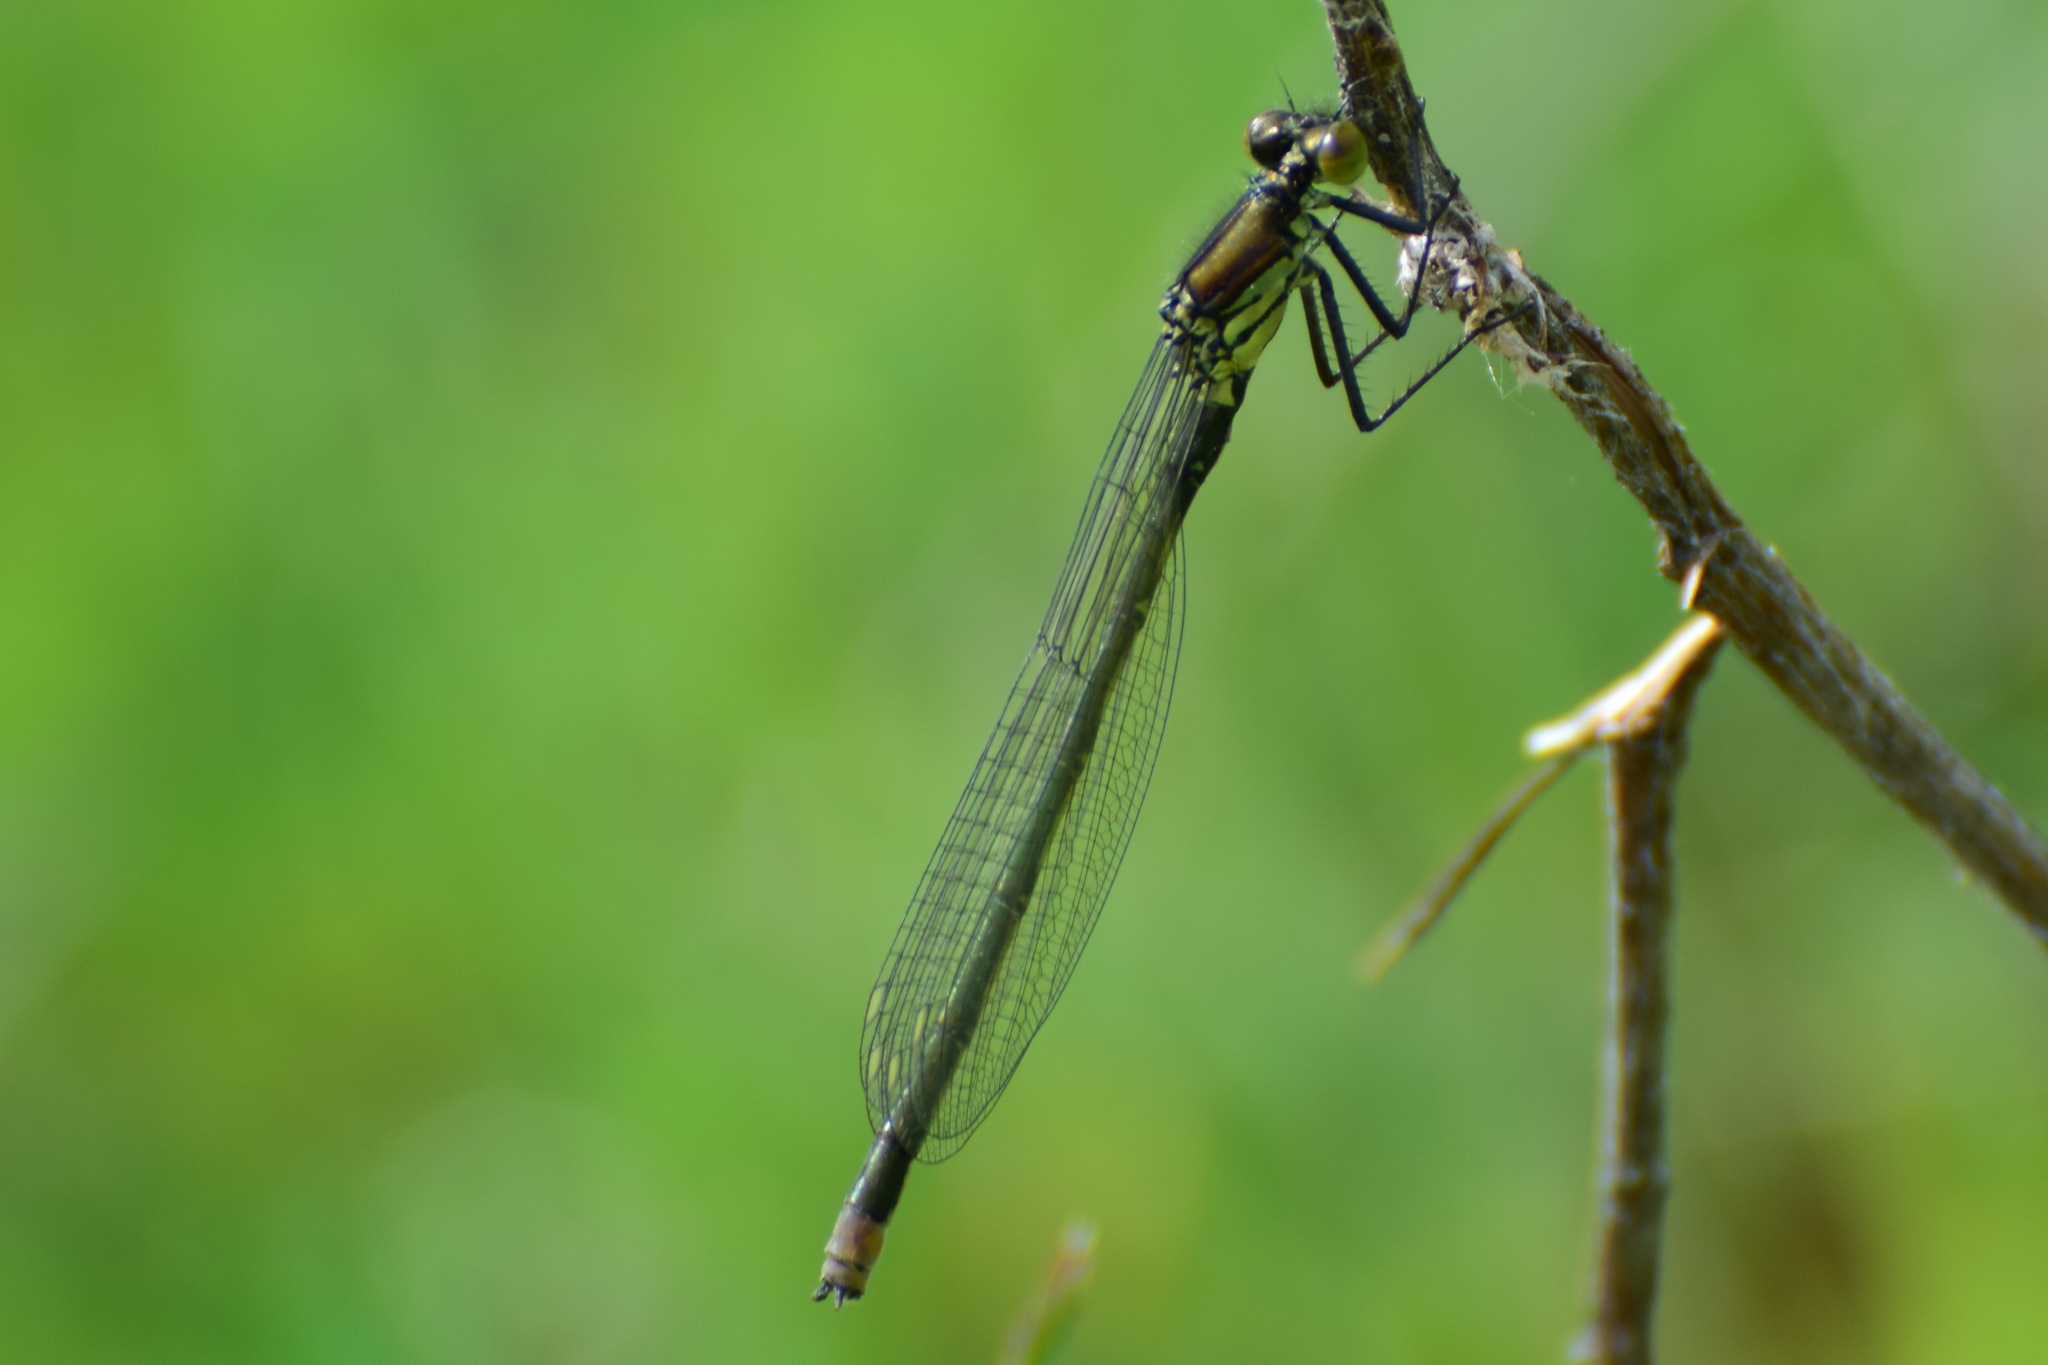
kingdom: Animalia
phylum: Arthropoda
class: Insecta
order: Odonata
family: Coenagrionidae
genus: Erythromma
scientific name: Erythromma najas
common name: Red-eyed damselfly
